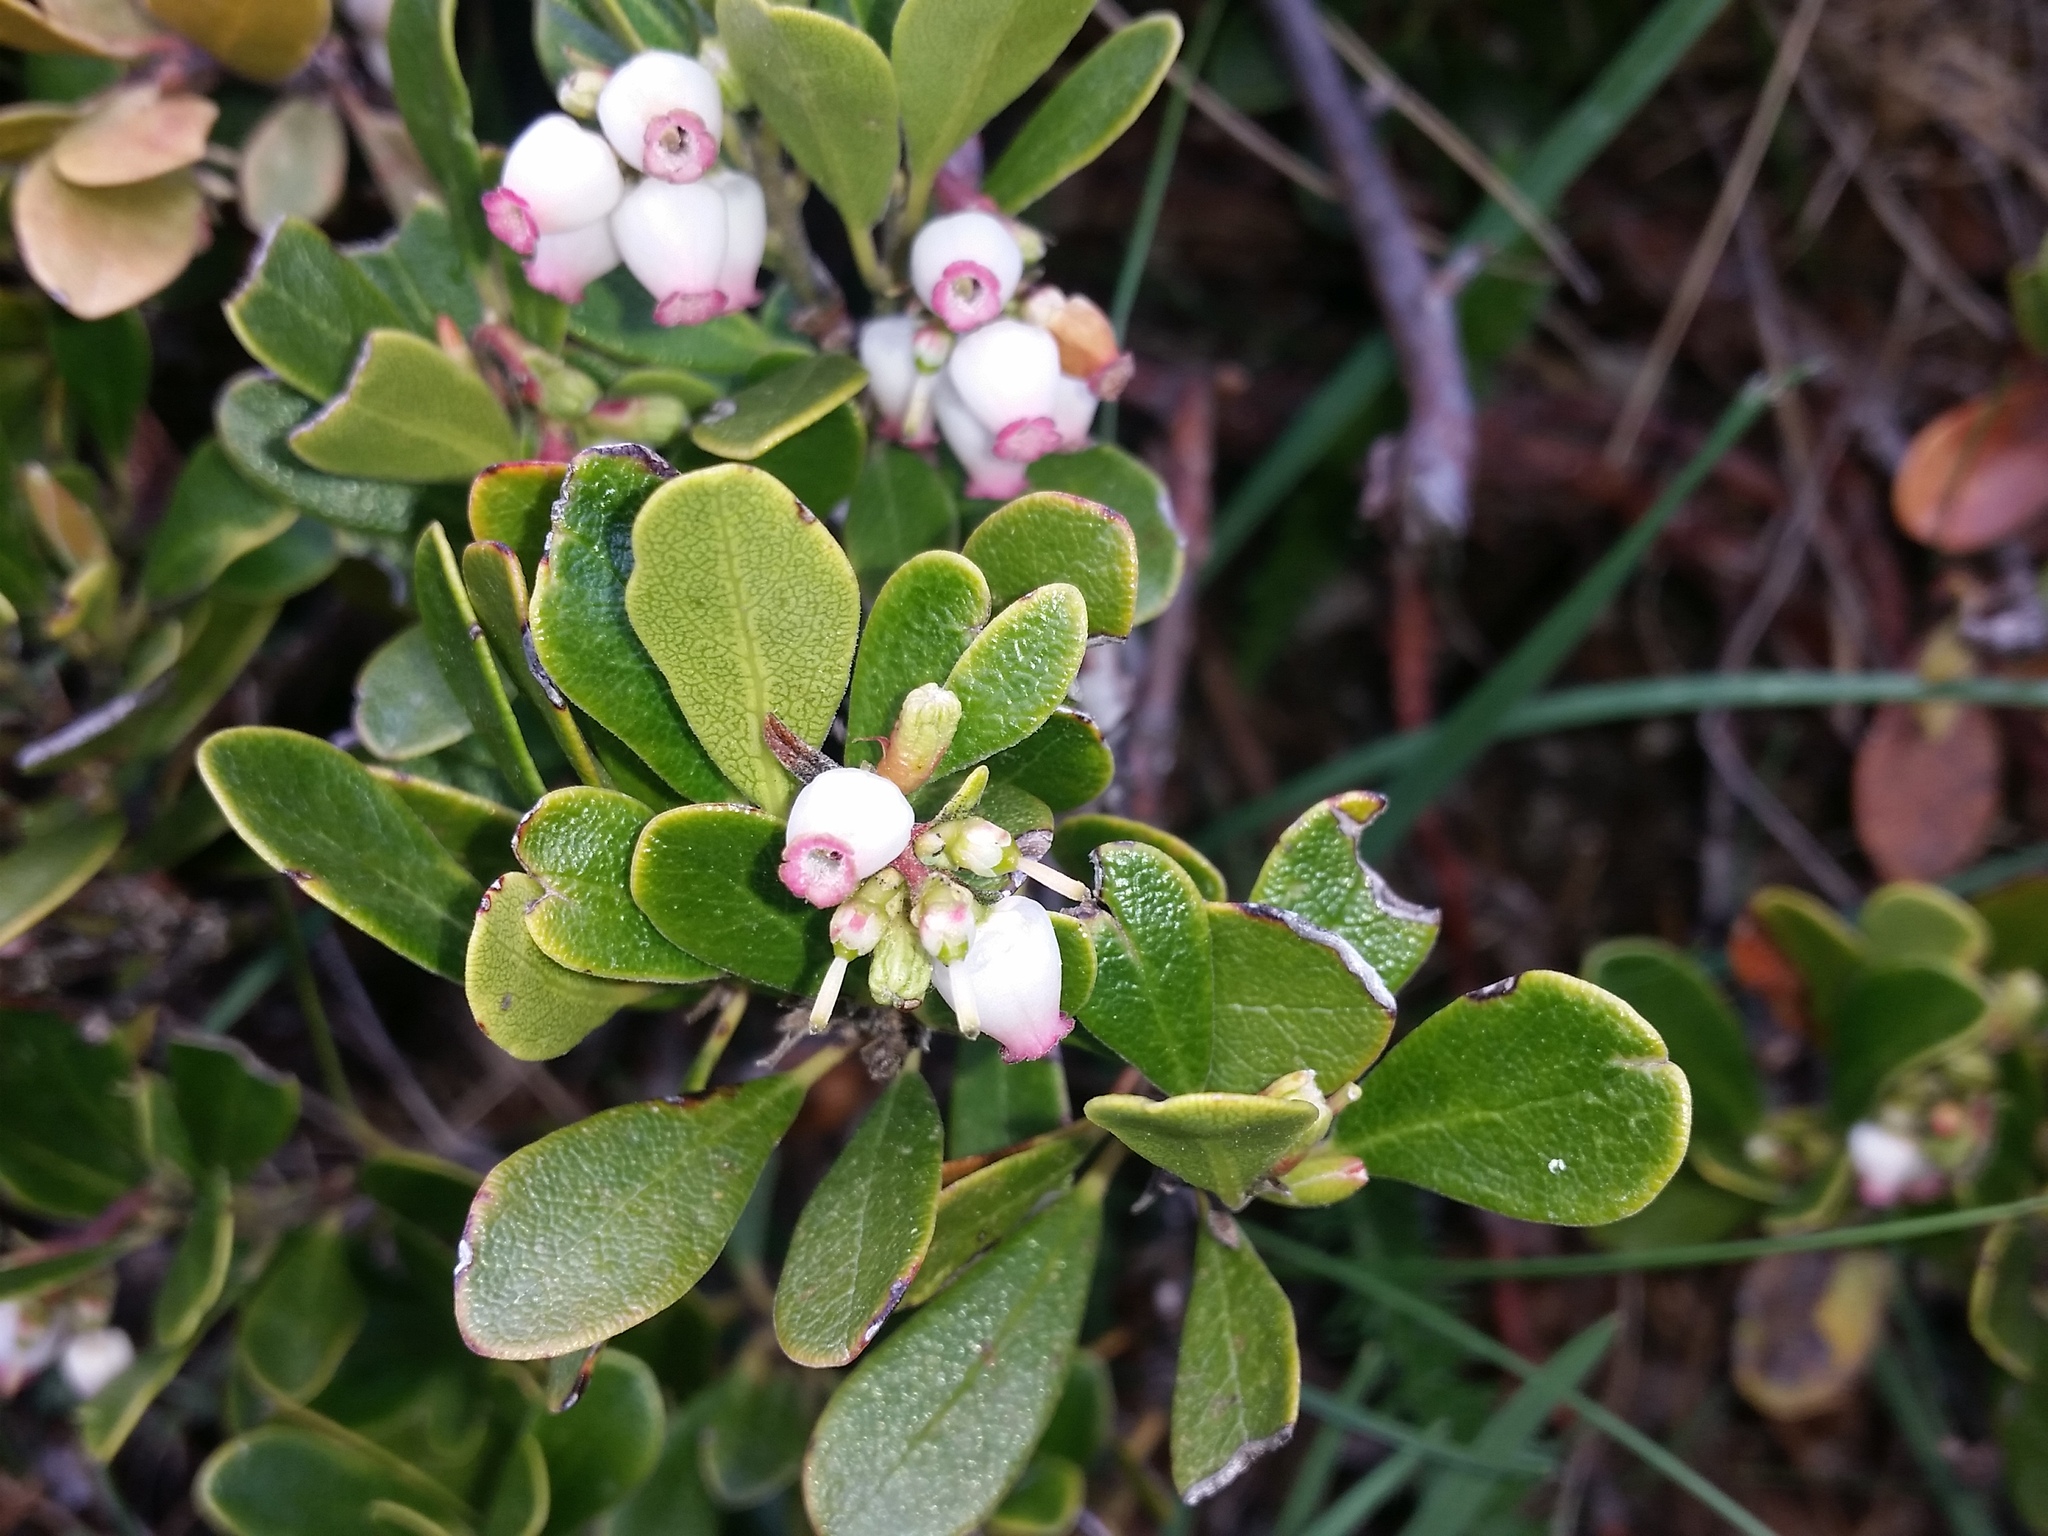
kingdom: Plantae
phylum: Tracheophyta
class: Magnoliopsida
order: Ericales
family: Ericaceae
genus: Arctostaphylos
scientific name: Arctostaphylos uva-ursi
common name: Bearberry
